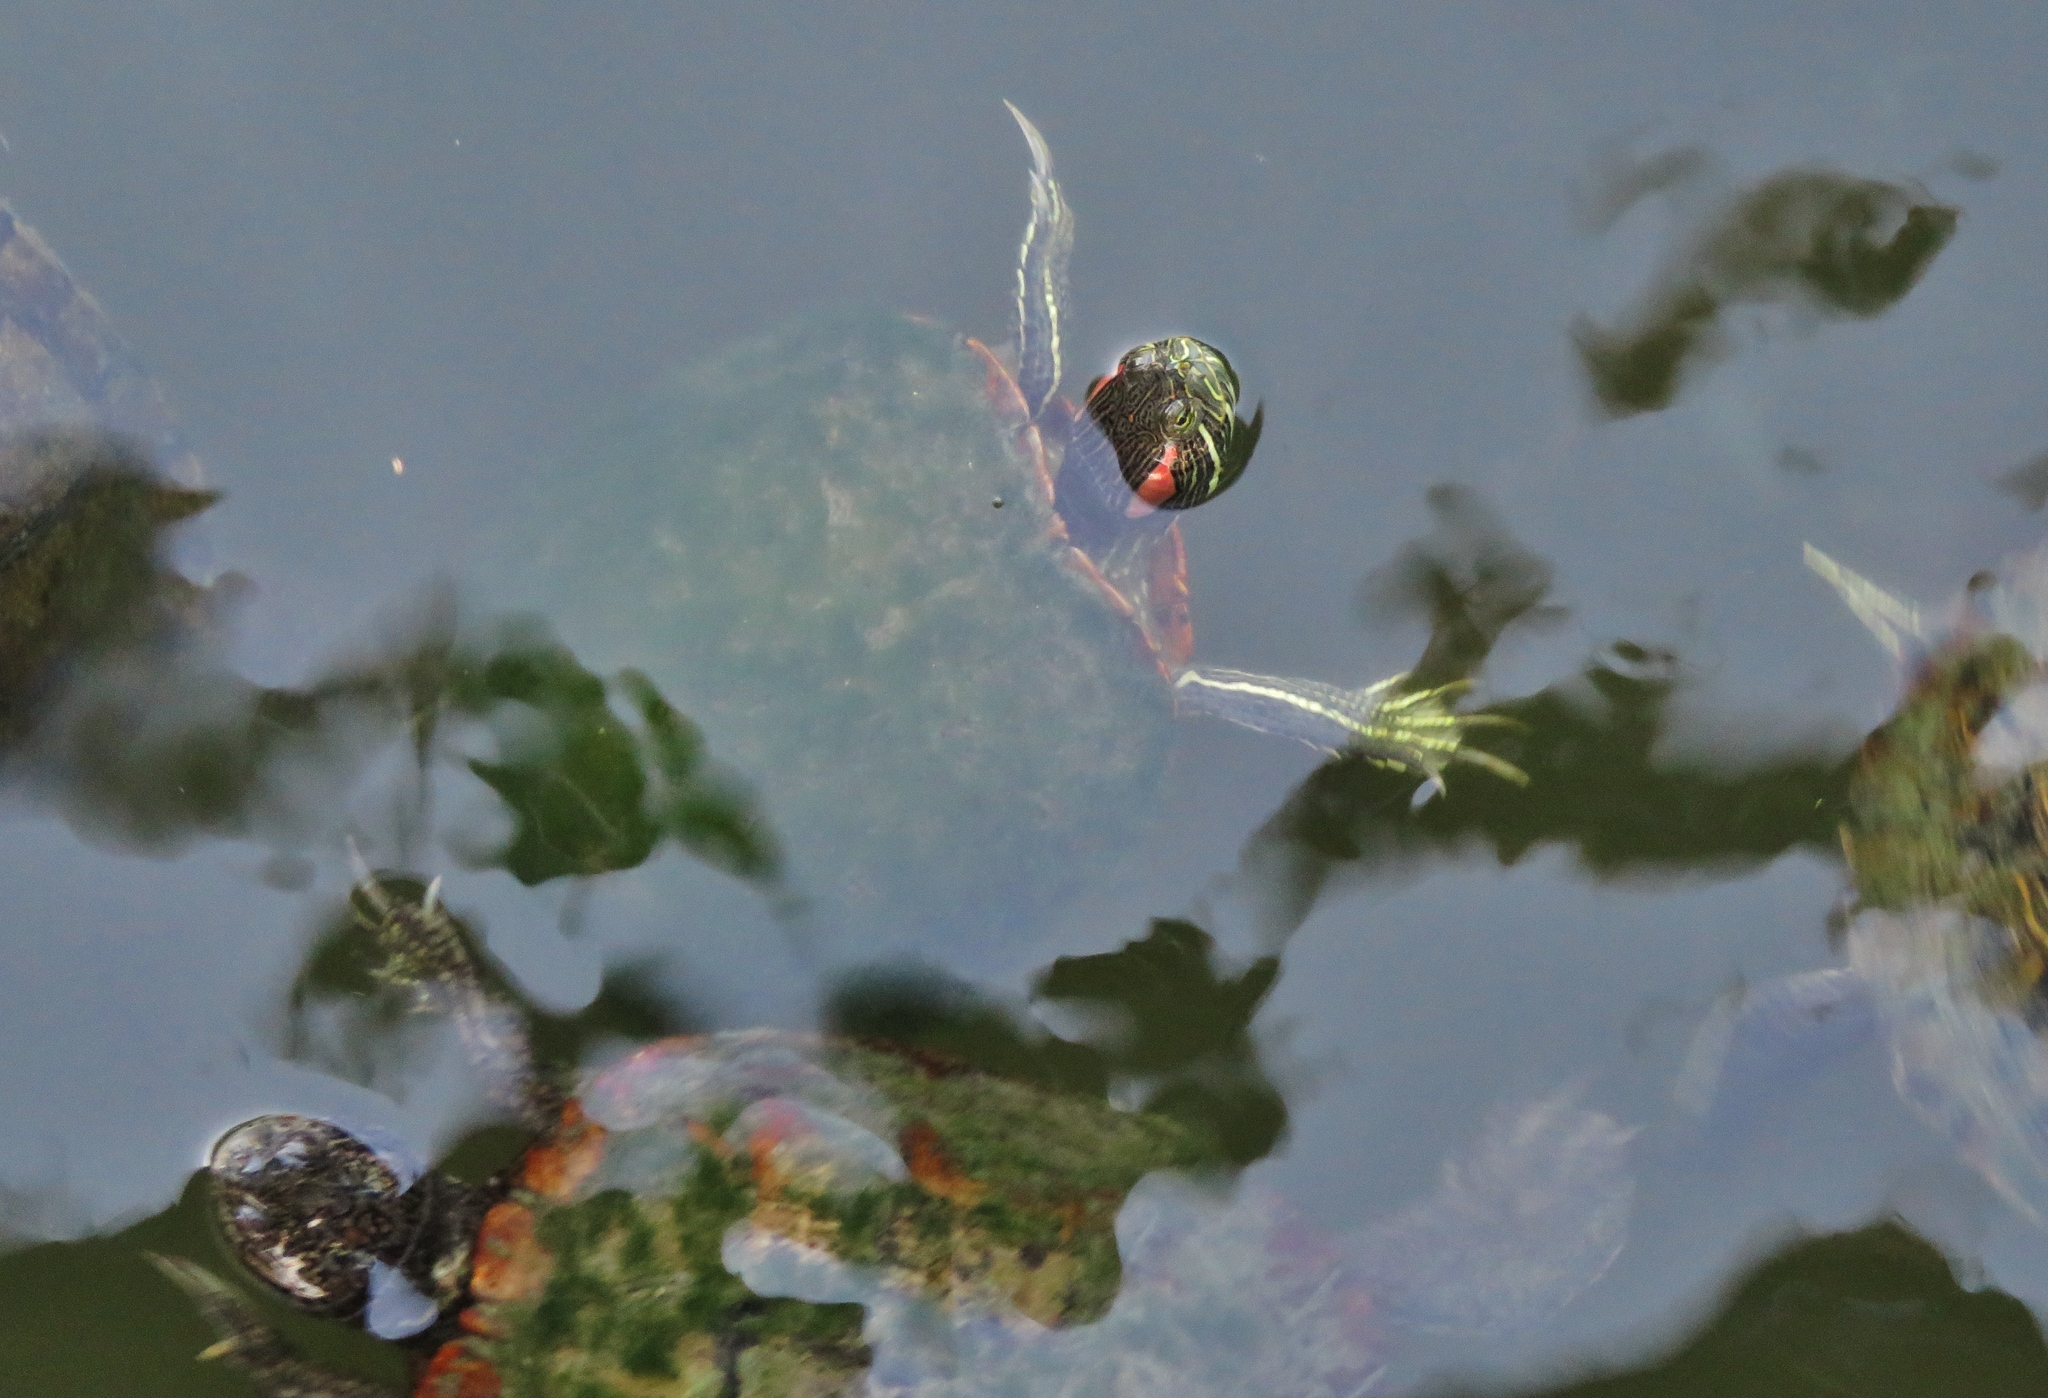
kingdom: Animalia
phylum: Chordata
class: Testudines
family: Emydidae
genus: Trachemys
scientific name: Trachemys scripta
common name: Slider
